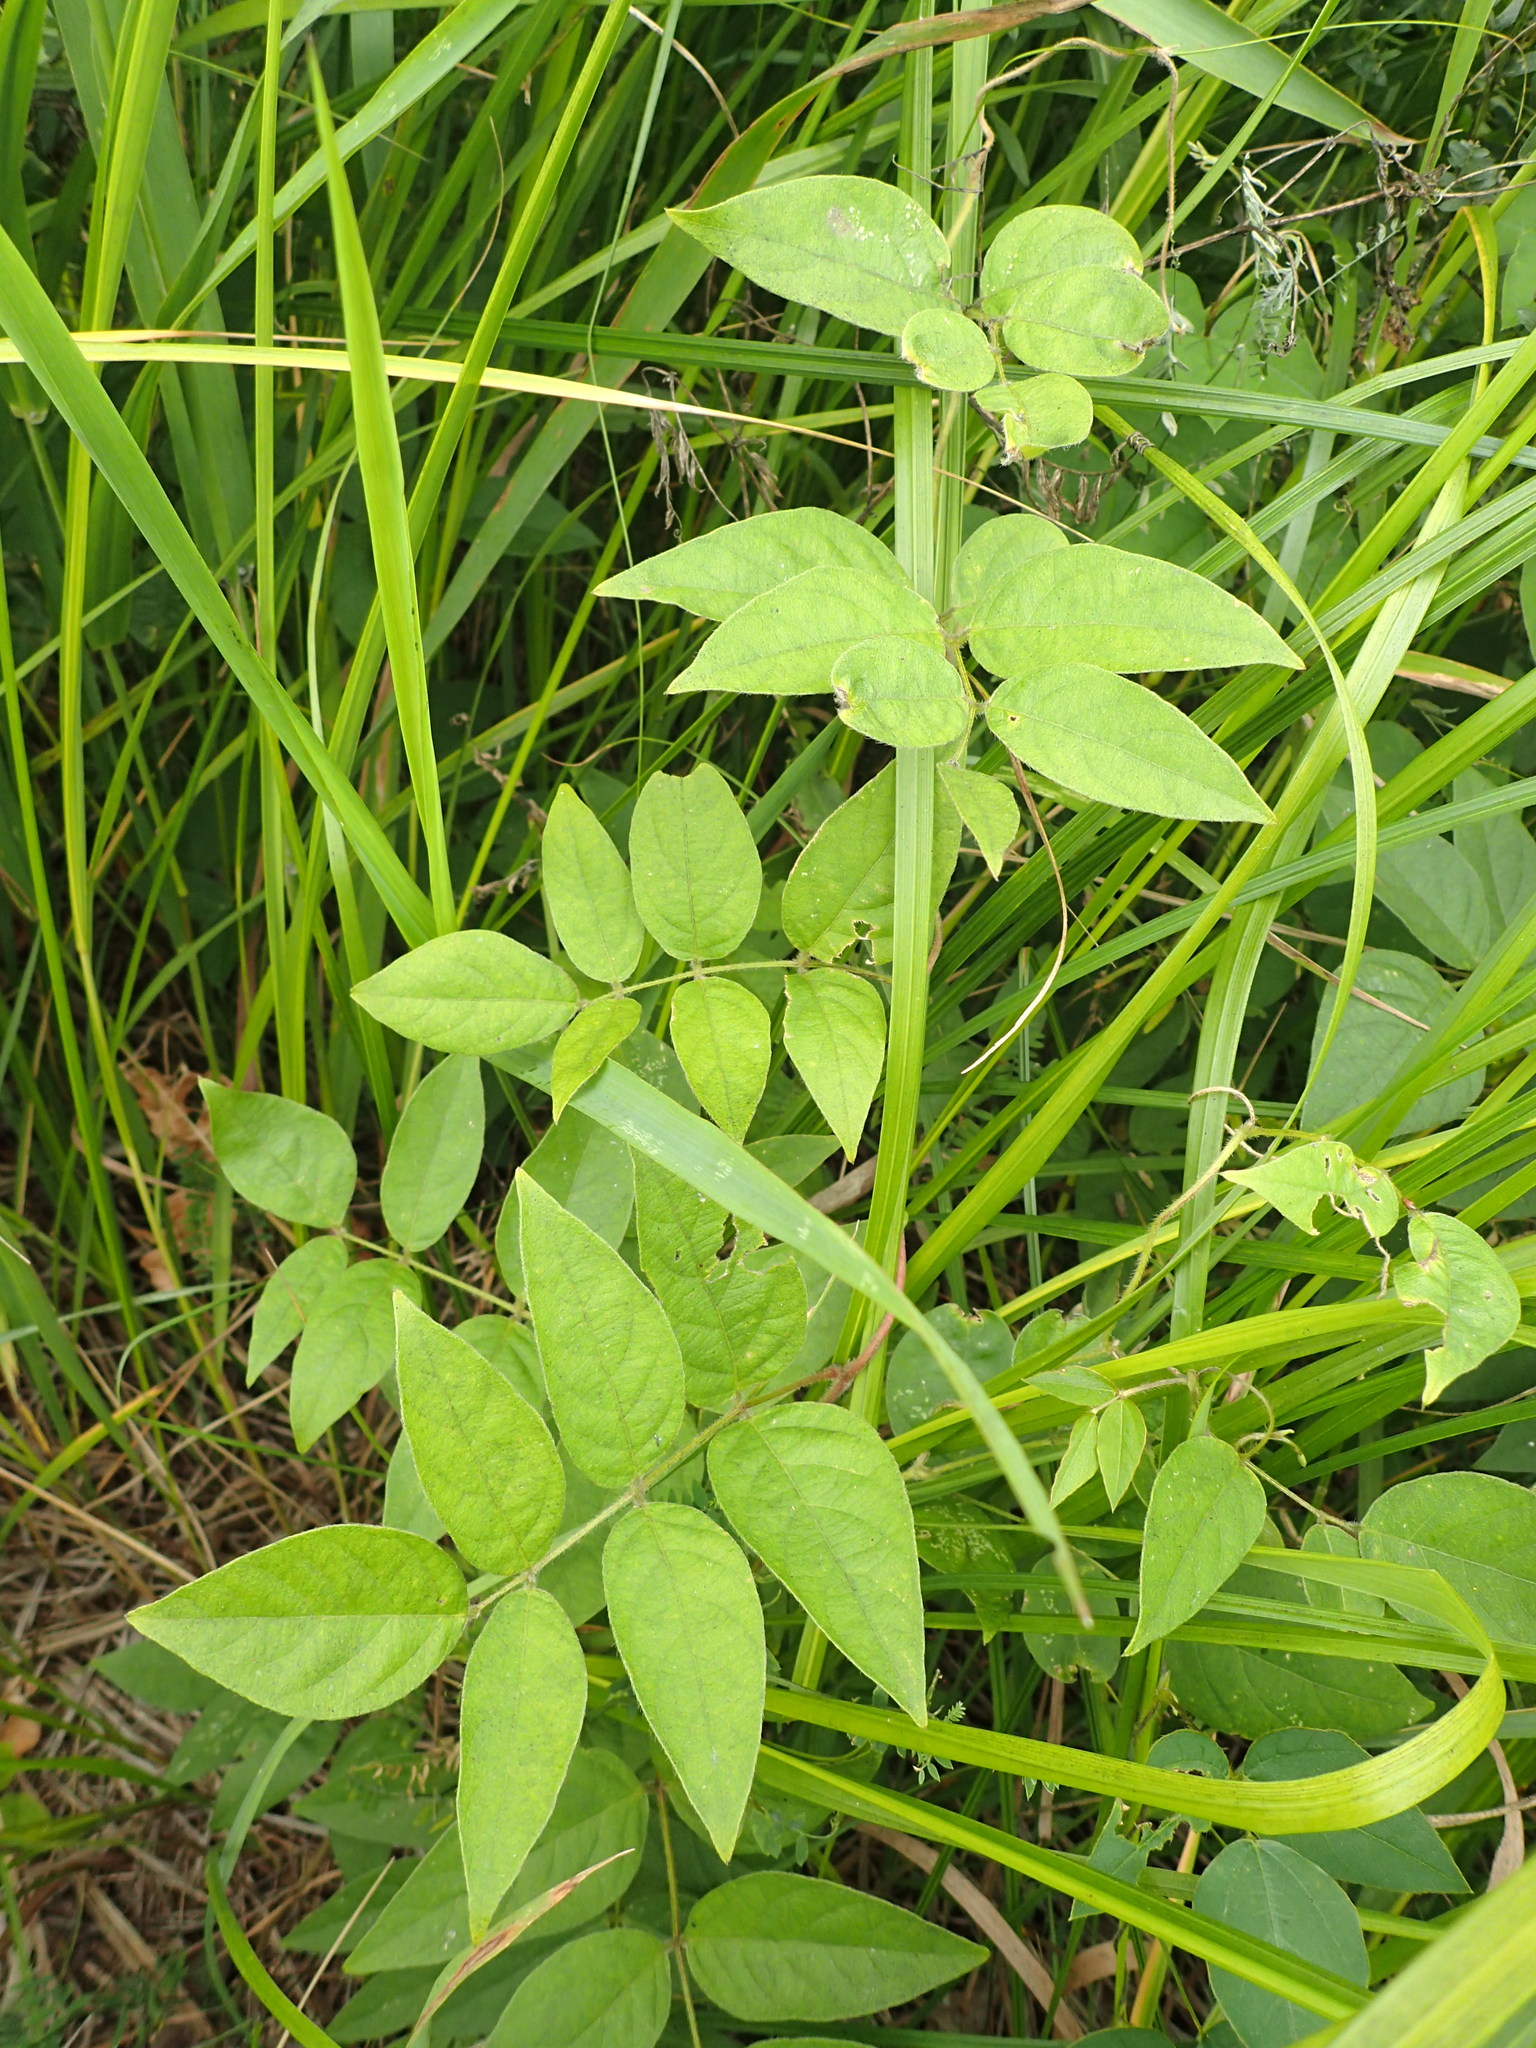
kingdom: Plantae
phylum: Tracheophyta
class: Magnoliopsida
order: Fabales
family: Fabaceae
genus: Apios
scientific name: Apios americana
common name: American potato-bean
